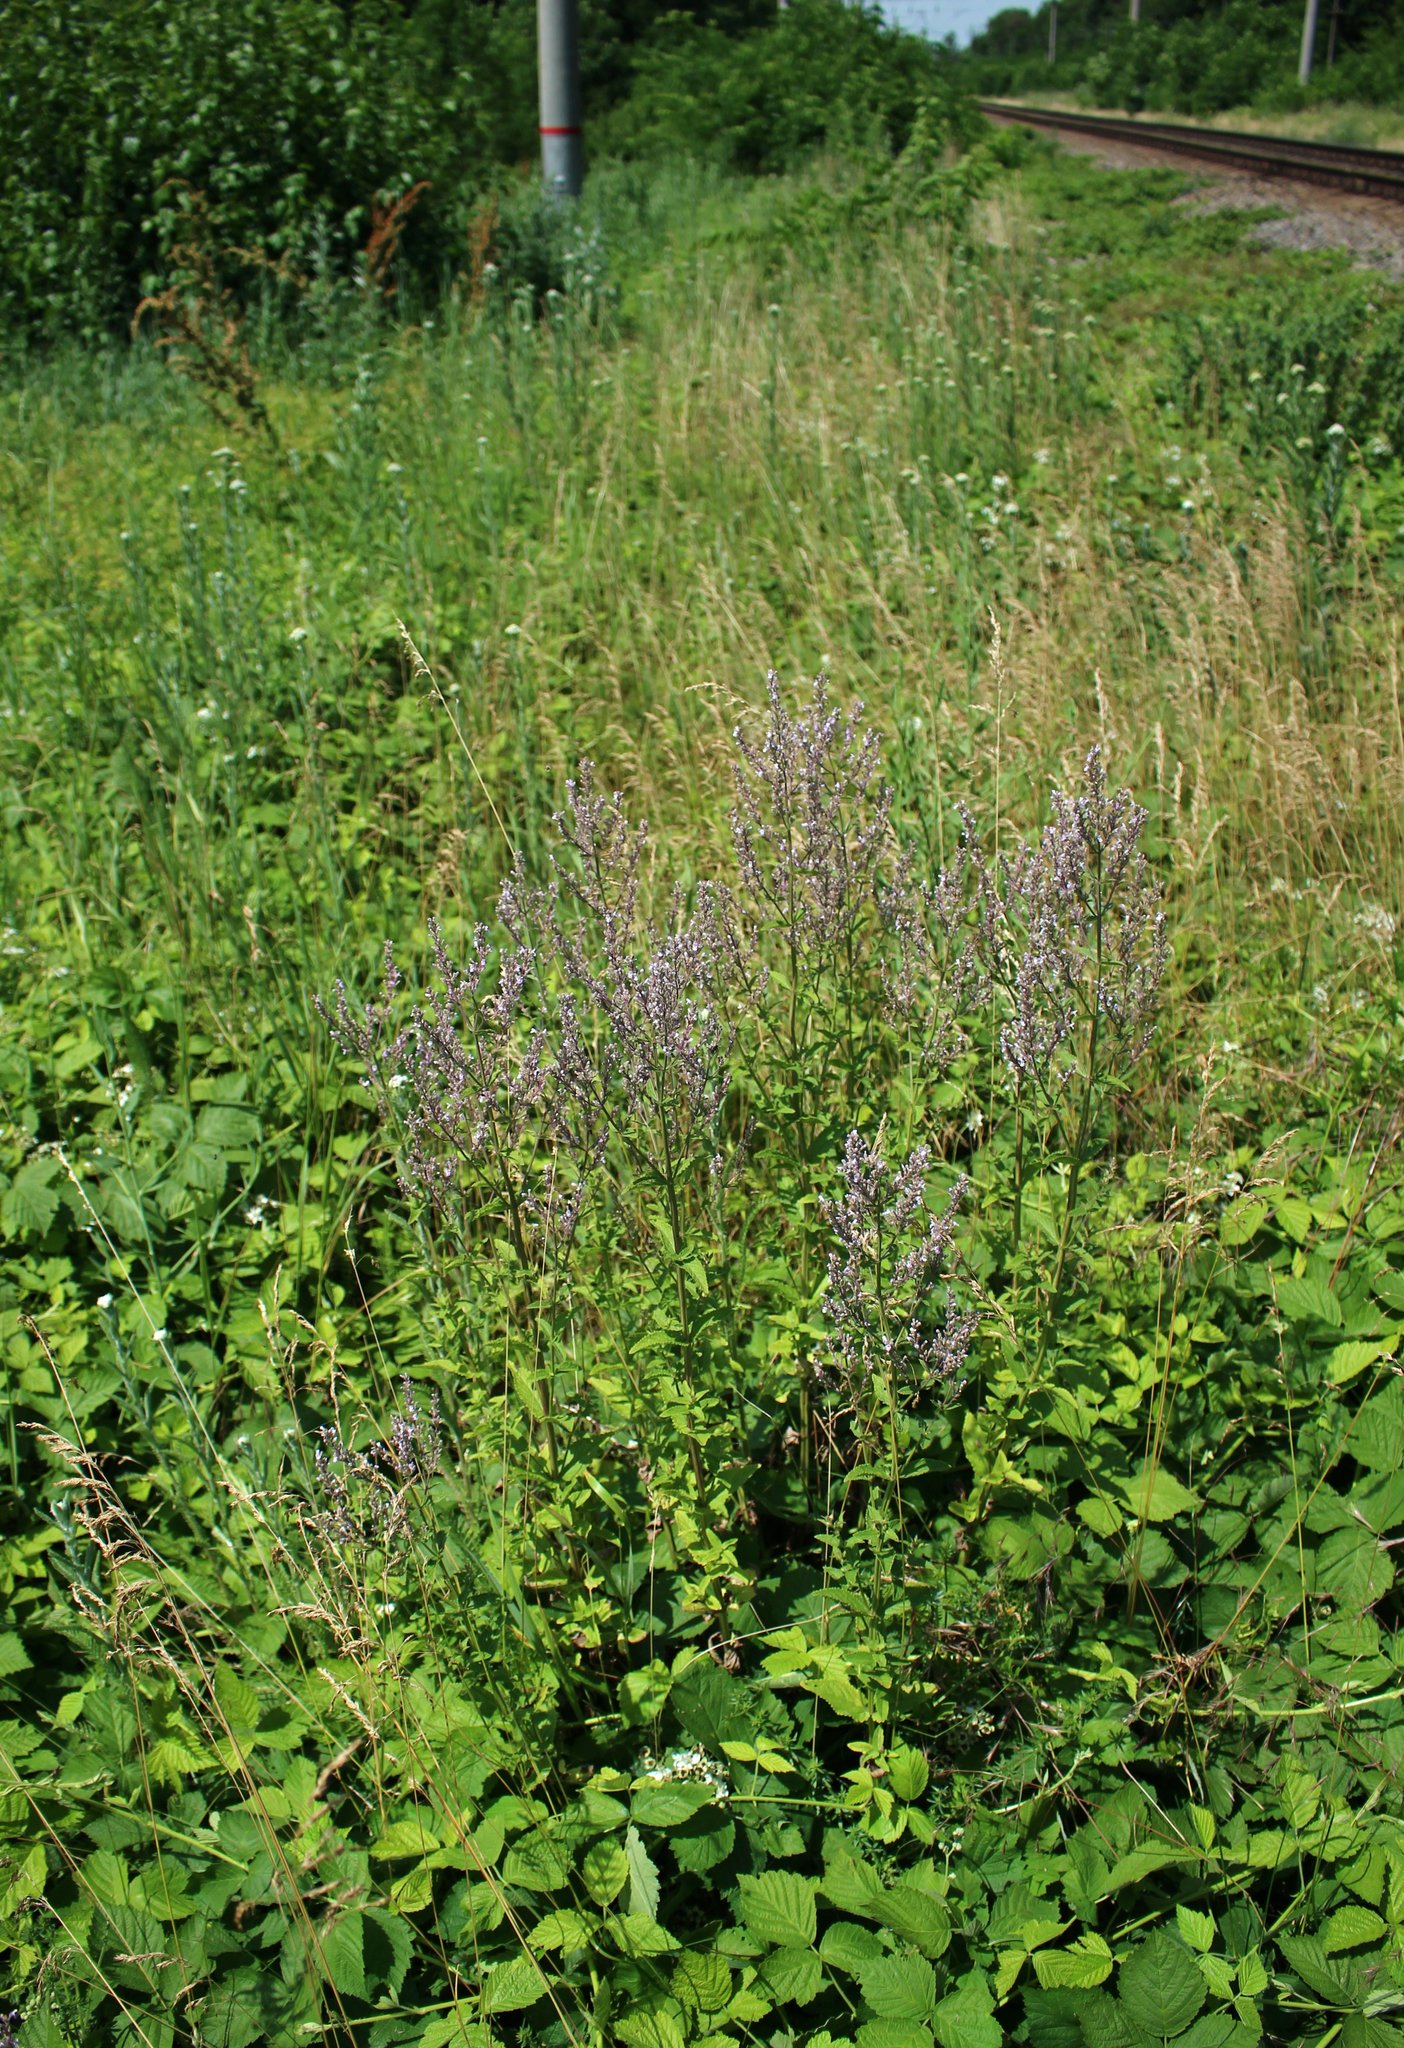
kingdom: Plantae
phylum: Tracheophyta
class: Magnoliopsida
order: Lamiales
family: Lamiaceae
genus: Nepeta
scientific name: Nepeta nuda
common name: Hairless catmint
